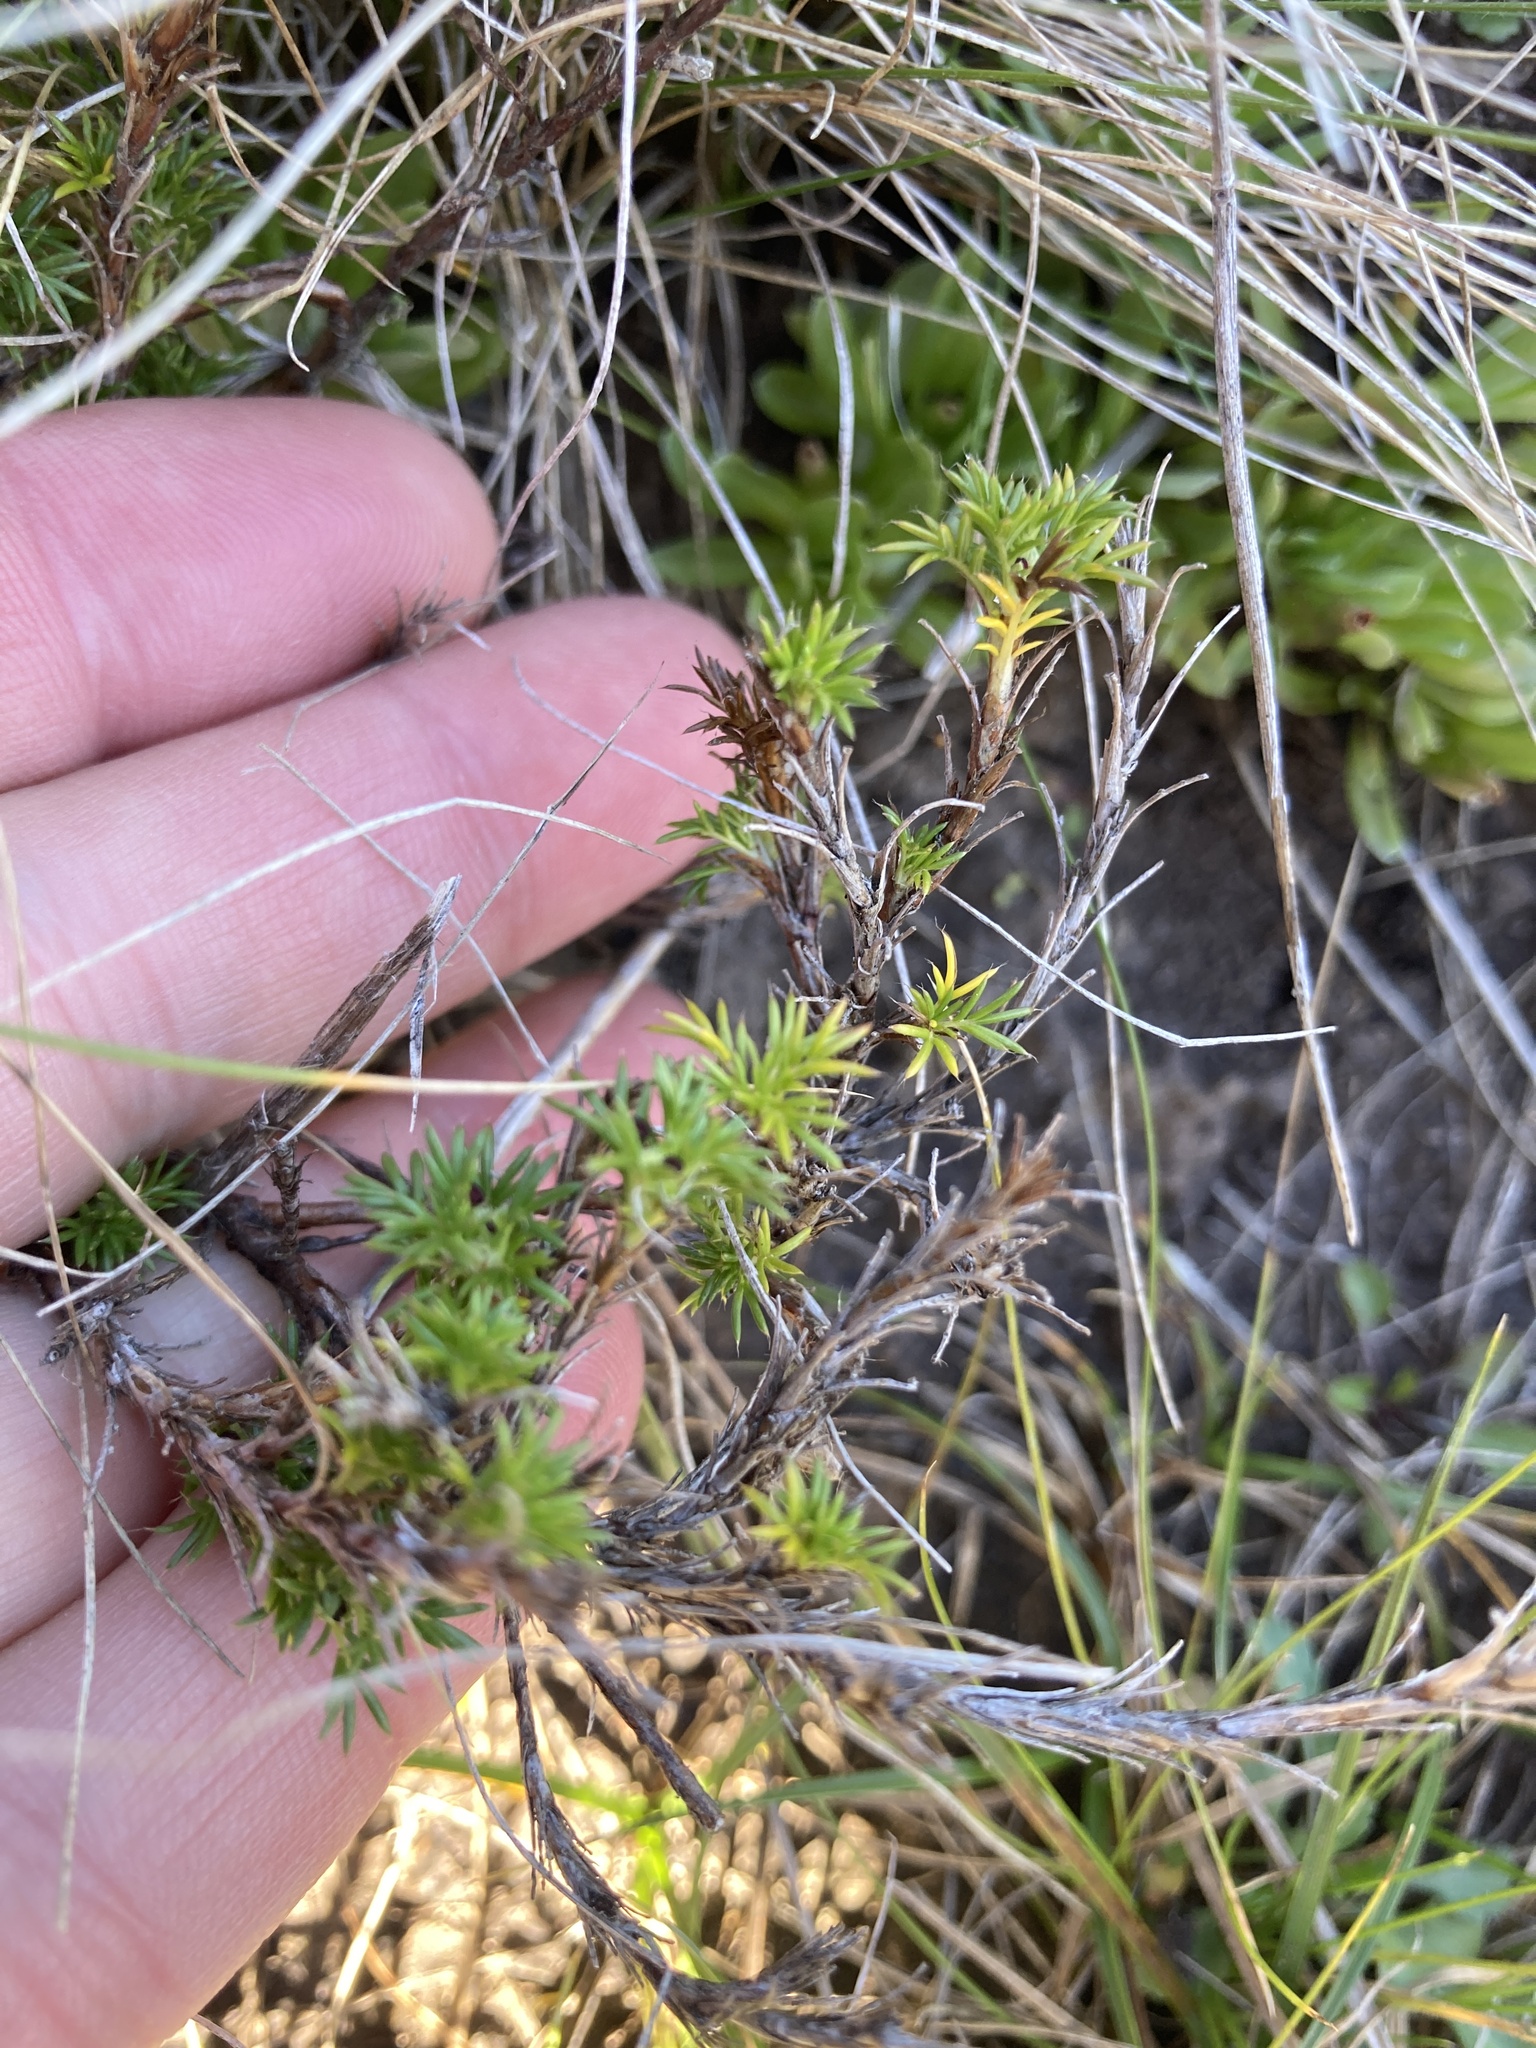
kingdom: Plantae
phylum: Tracheophyta
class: Magnoliopsida
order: Rosales
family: Rosaceae
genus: Margyricarpus
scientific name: Margyricarpus pinnatus
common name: Pearlfruit
